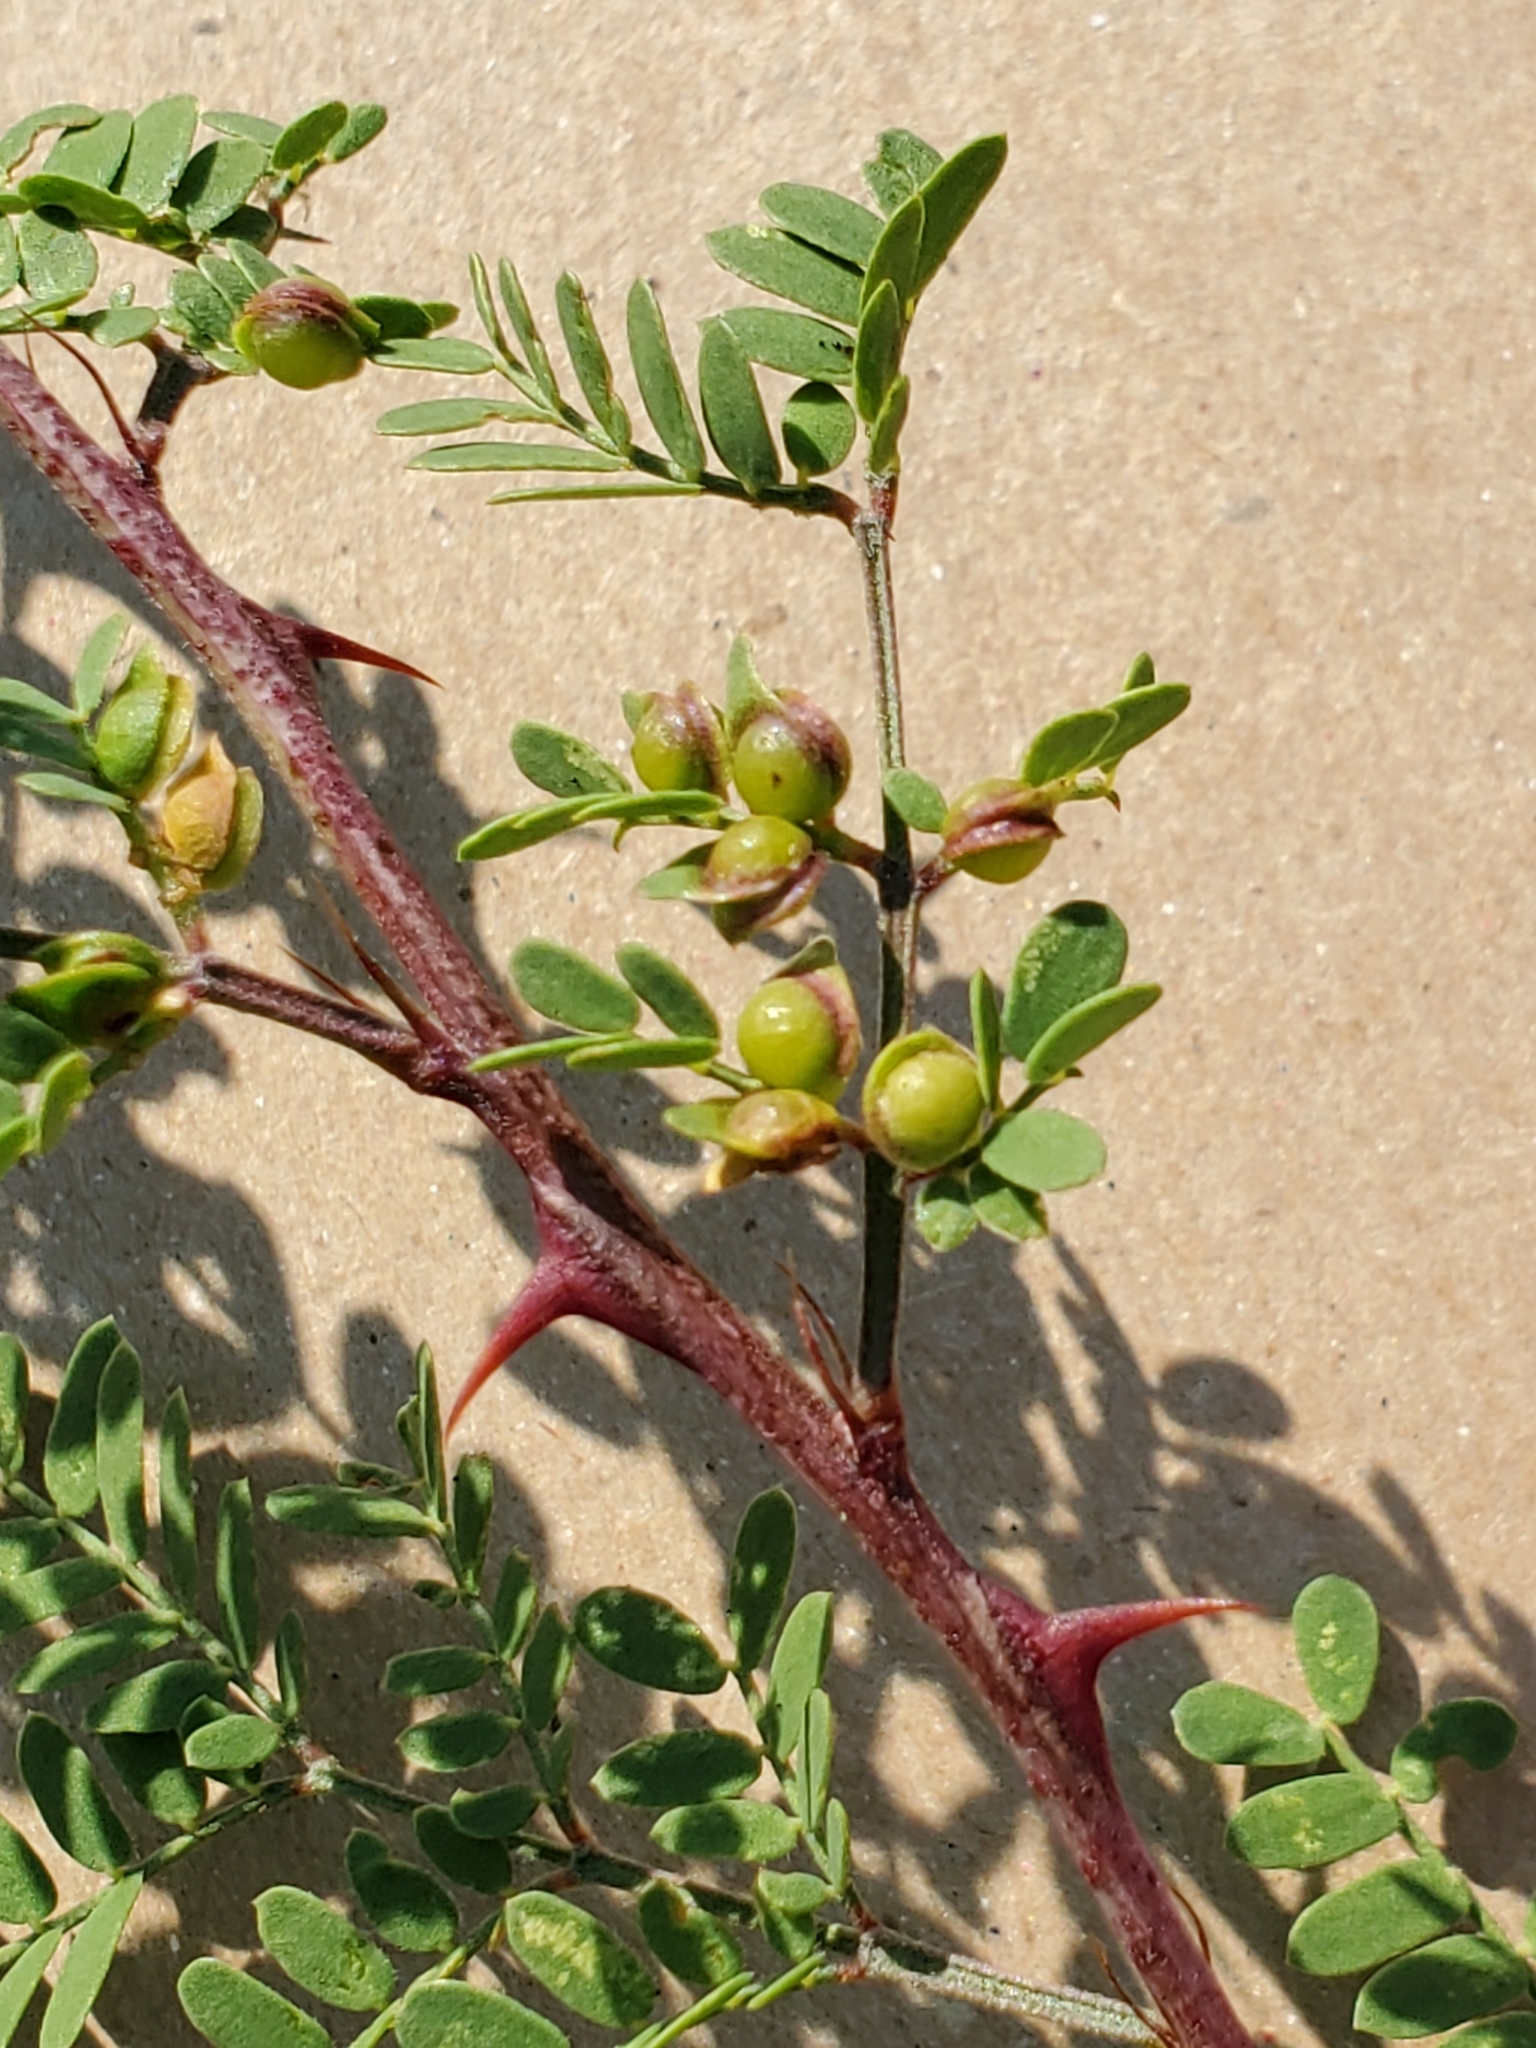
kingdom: Plantae
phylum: Tracheophyta
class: Magnoliopsida
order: Fabales
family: Fabaceae
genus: Mimosa
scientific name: Mimosa texana
